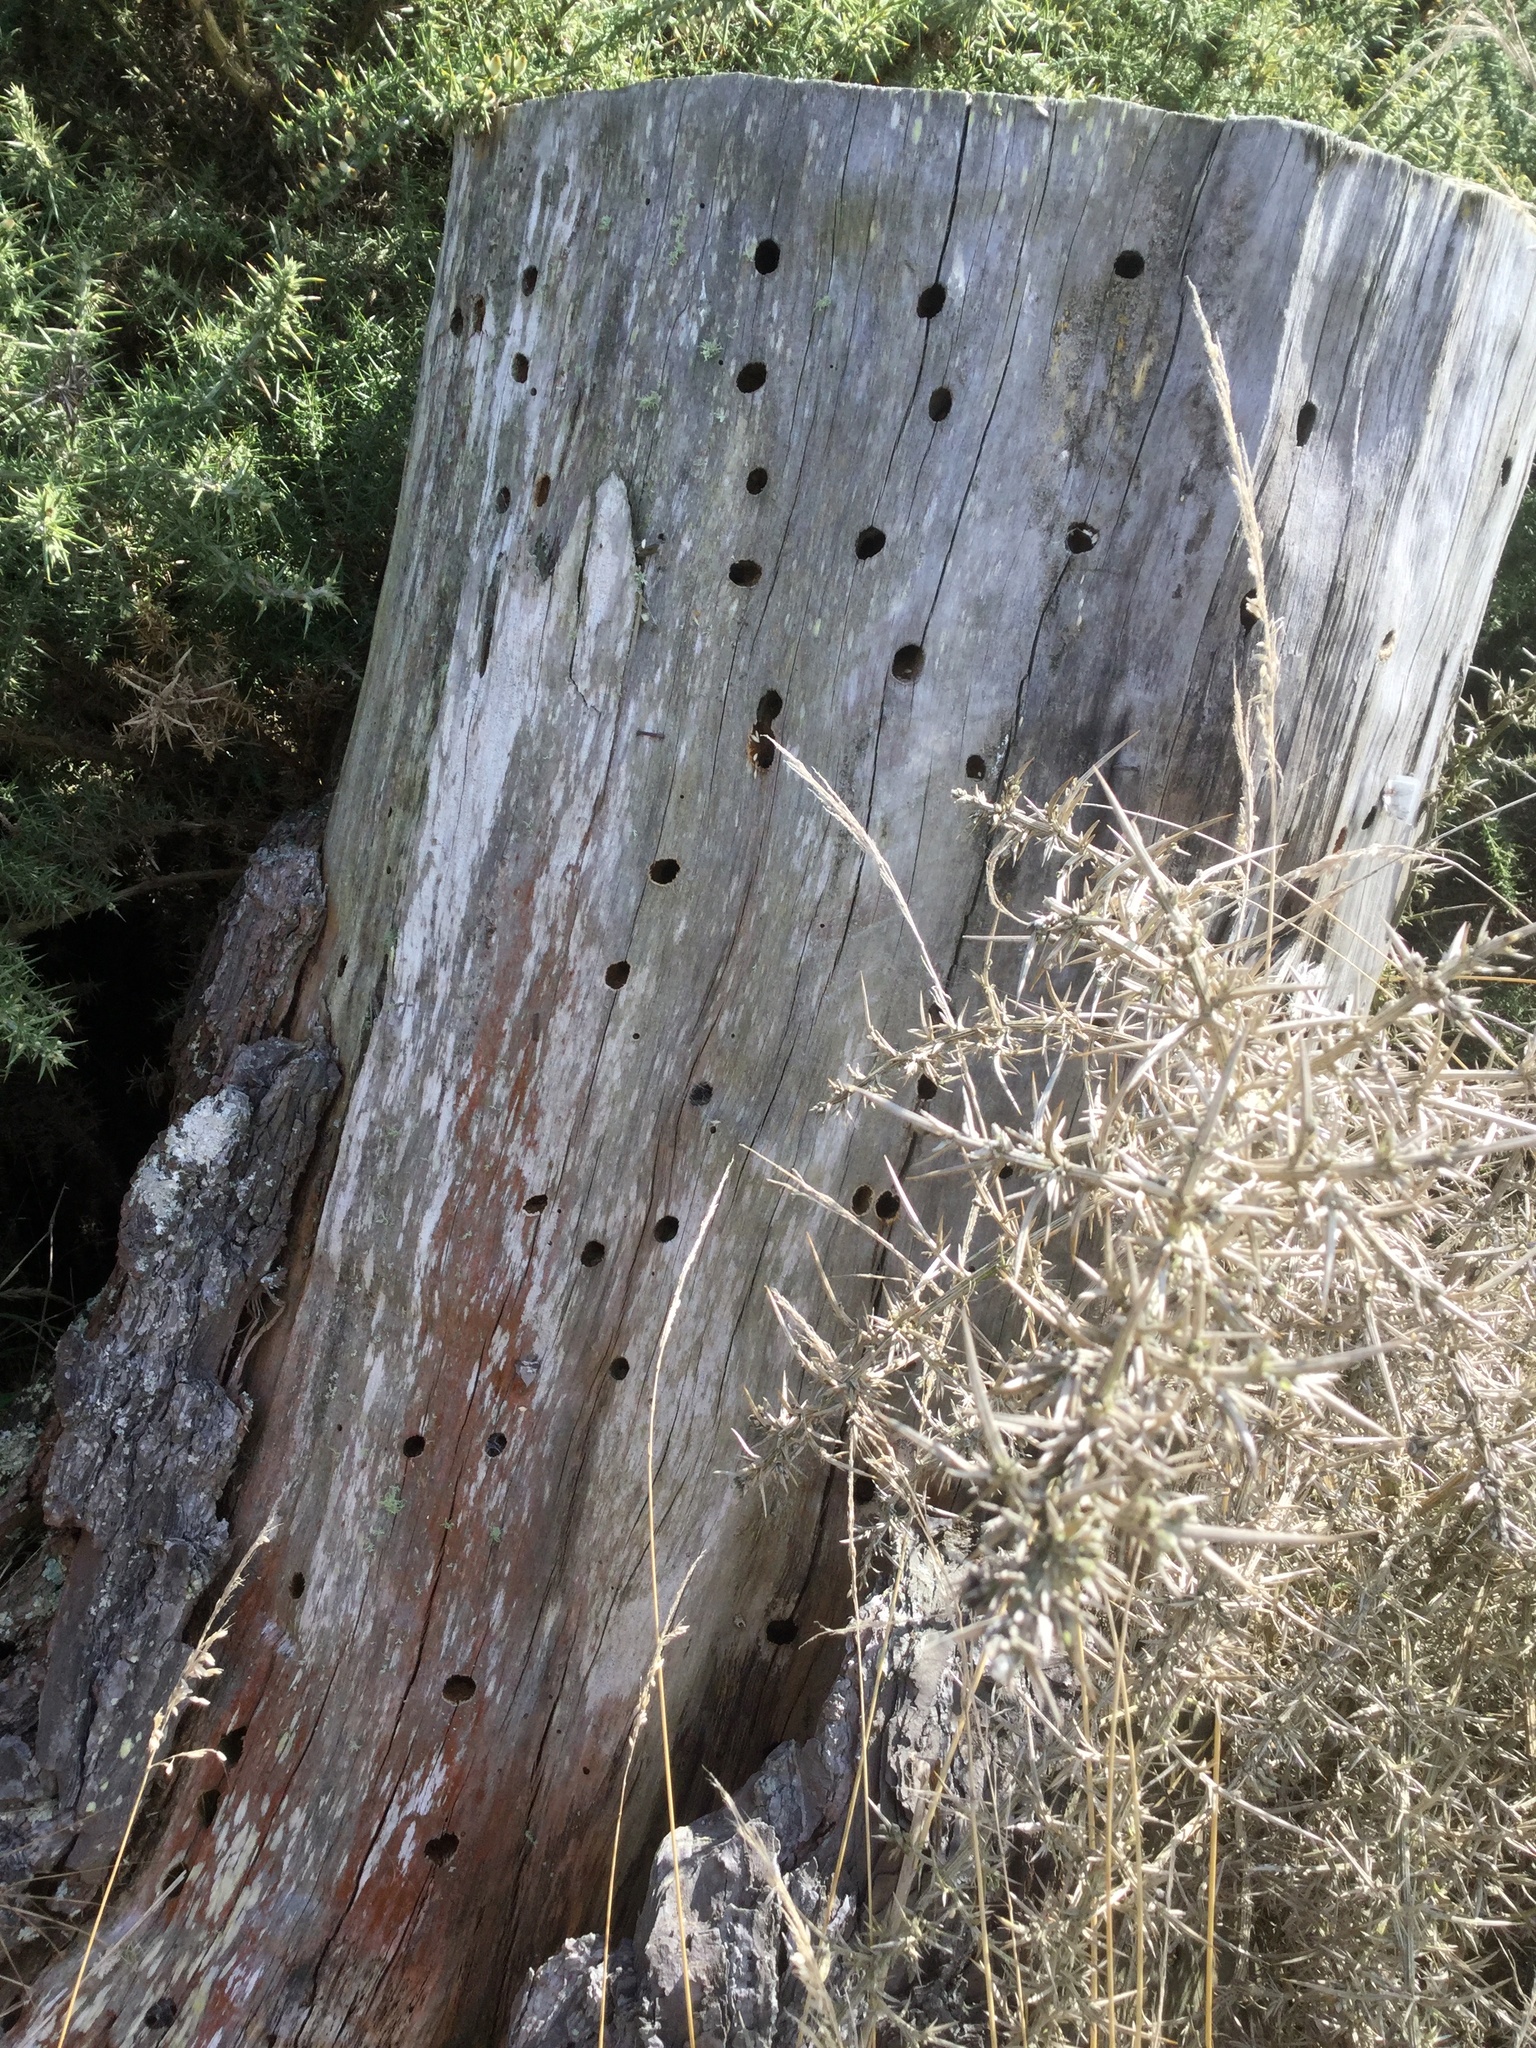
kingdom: Animalia
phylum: Arthropoda
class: Insecta
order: Coleoptera
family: Cerambycidae
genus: Prionoplus
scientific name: Prionoplus reticularis
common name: Huhu beetle
